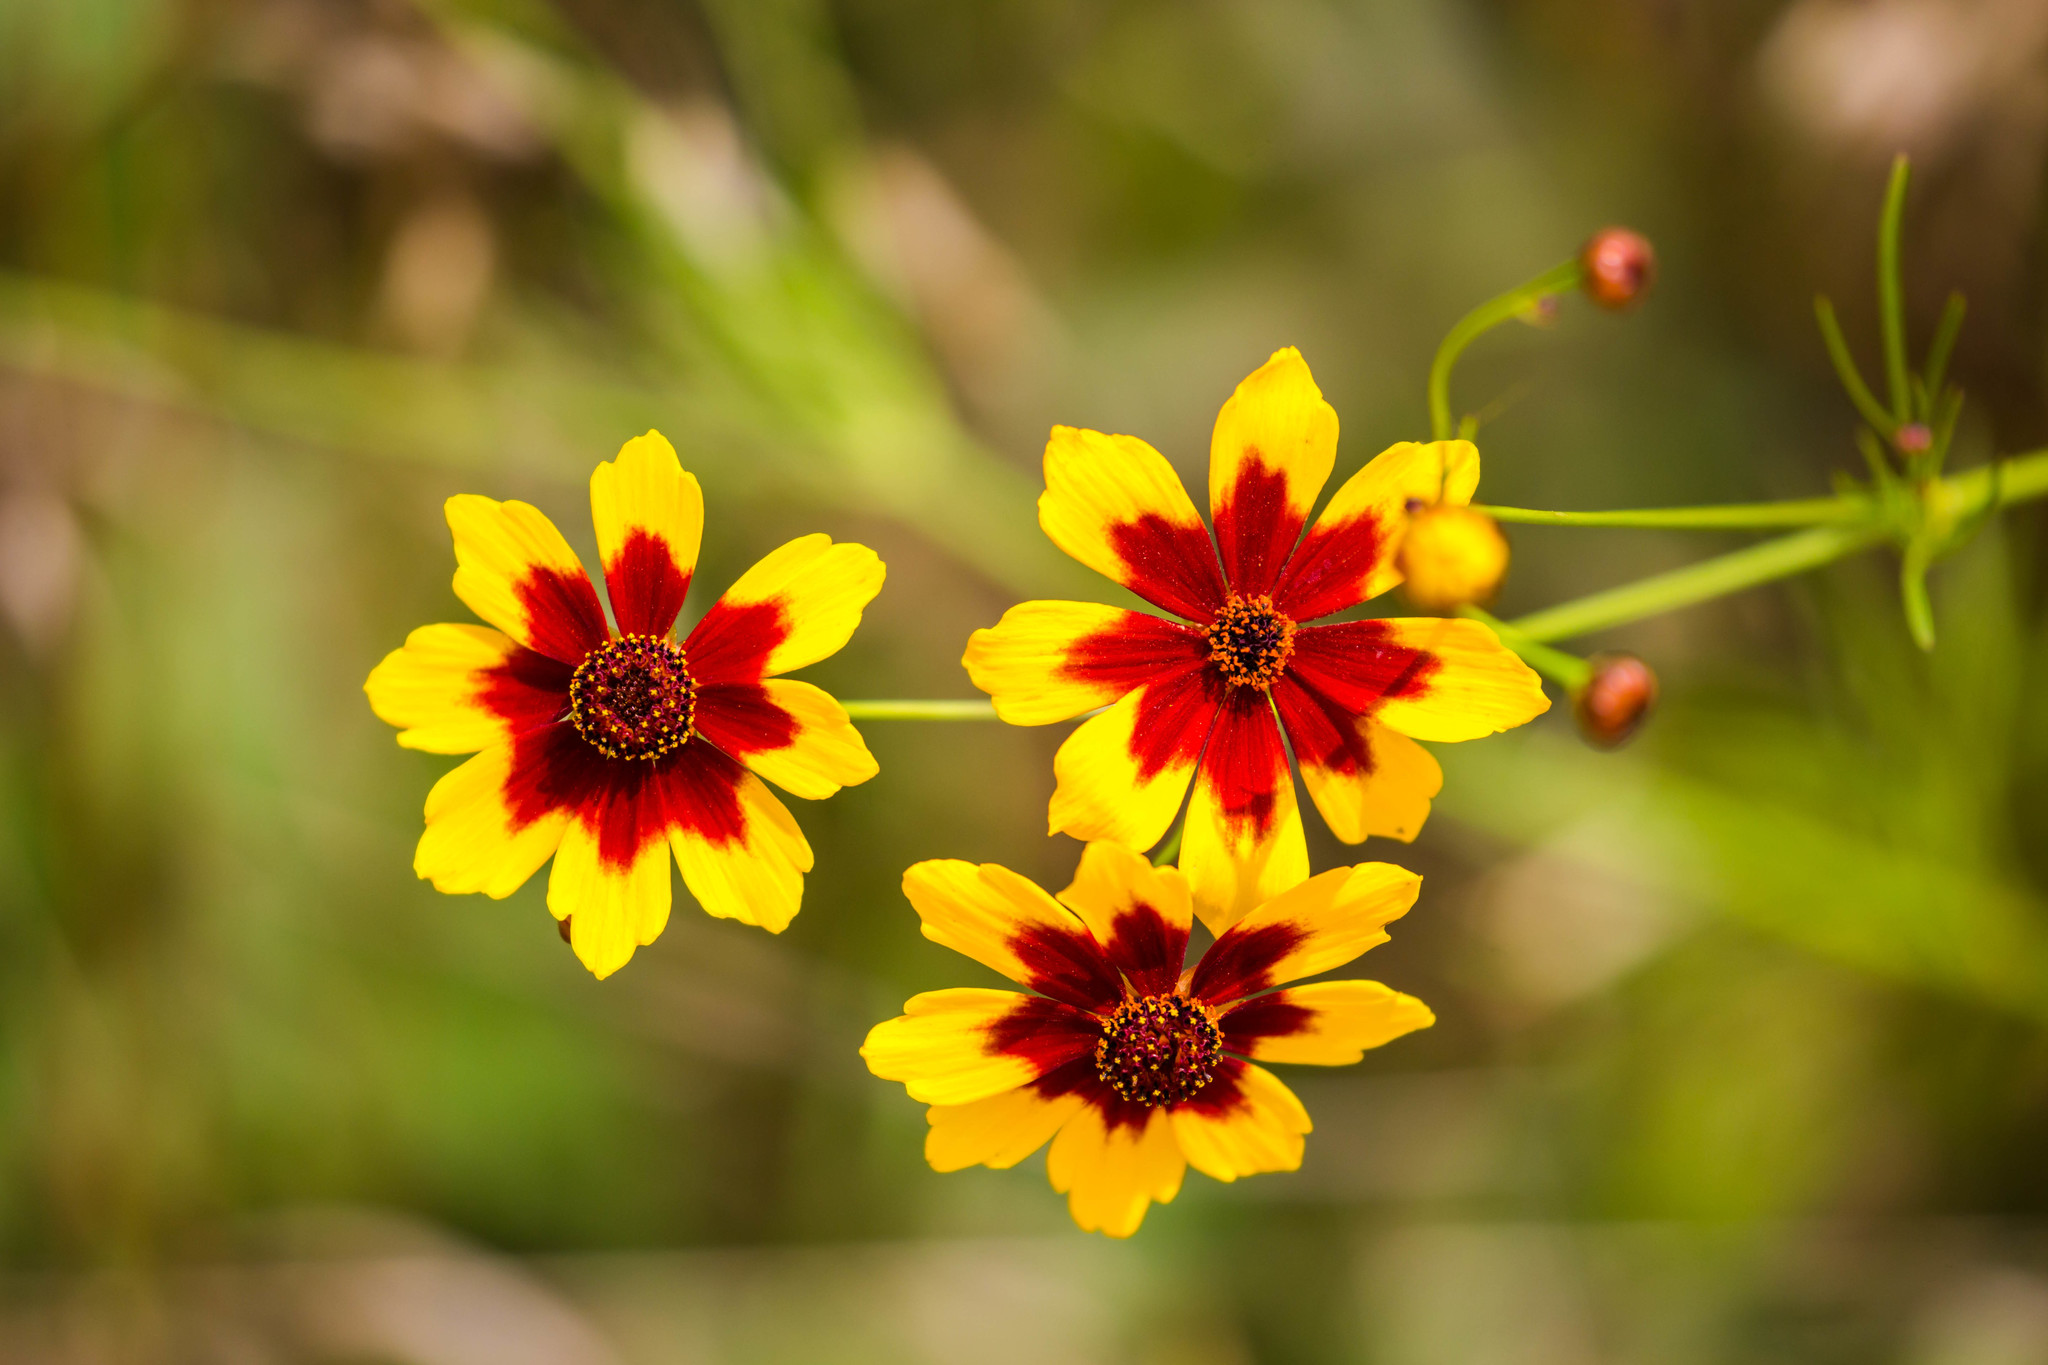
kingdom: Plantae
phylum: Tracheophyta
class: Magnoliopsida
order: Asterales
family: Asteraceae
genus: Coreopsis
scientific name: Coreopsis tinctoria
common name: Garden tickseed
